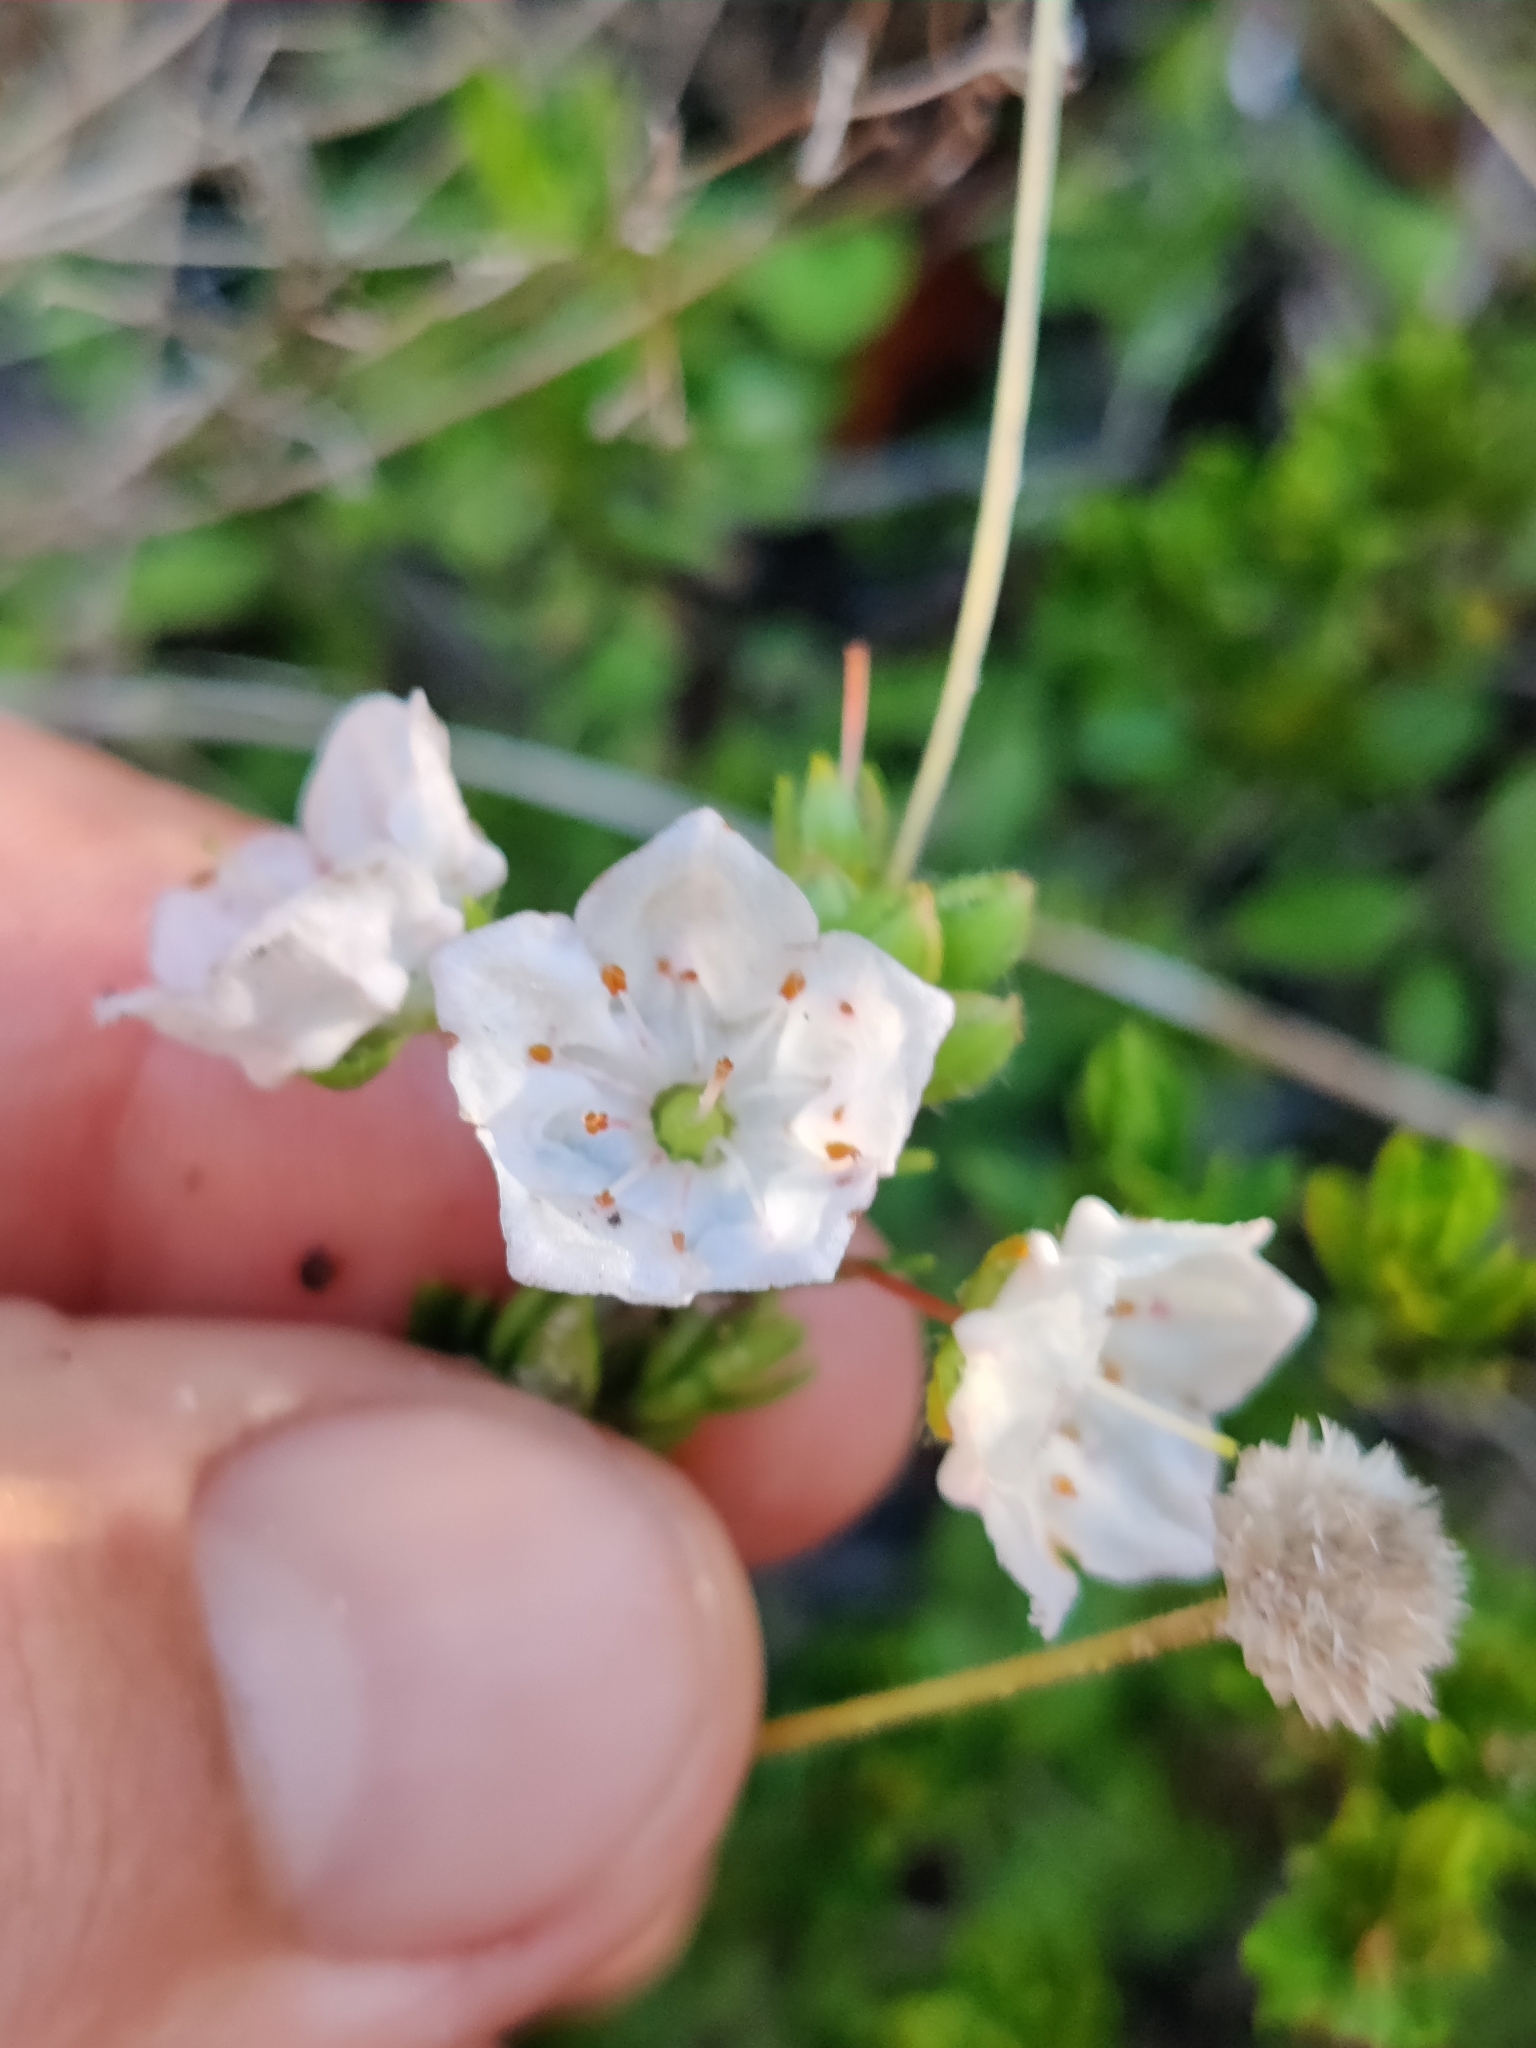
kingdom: Plantae
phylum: Tracheophyta
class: Magnoliopsida
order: Ericales
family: Ericaceae
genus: Kalmia
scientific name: Kalmia hirsuta
